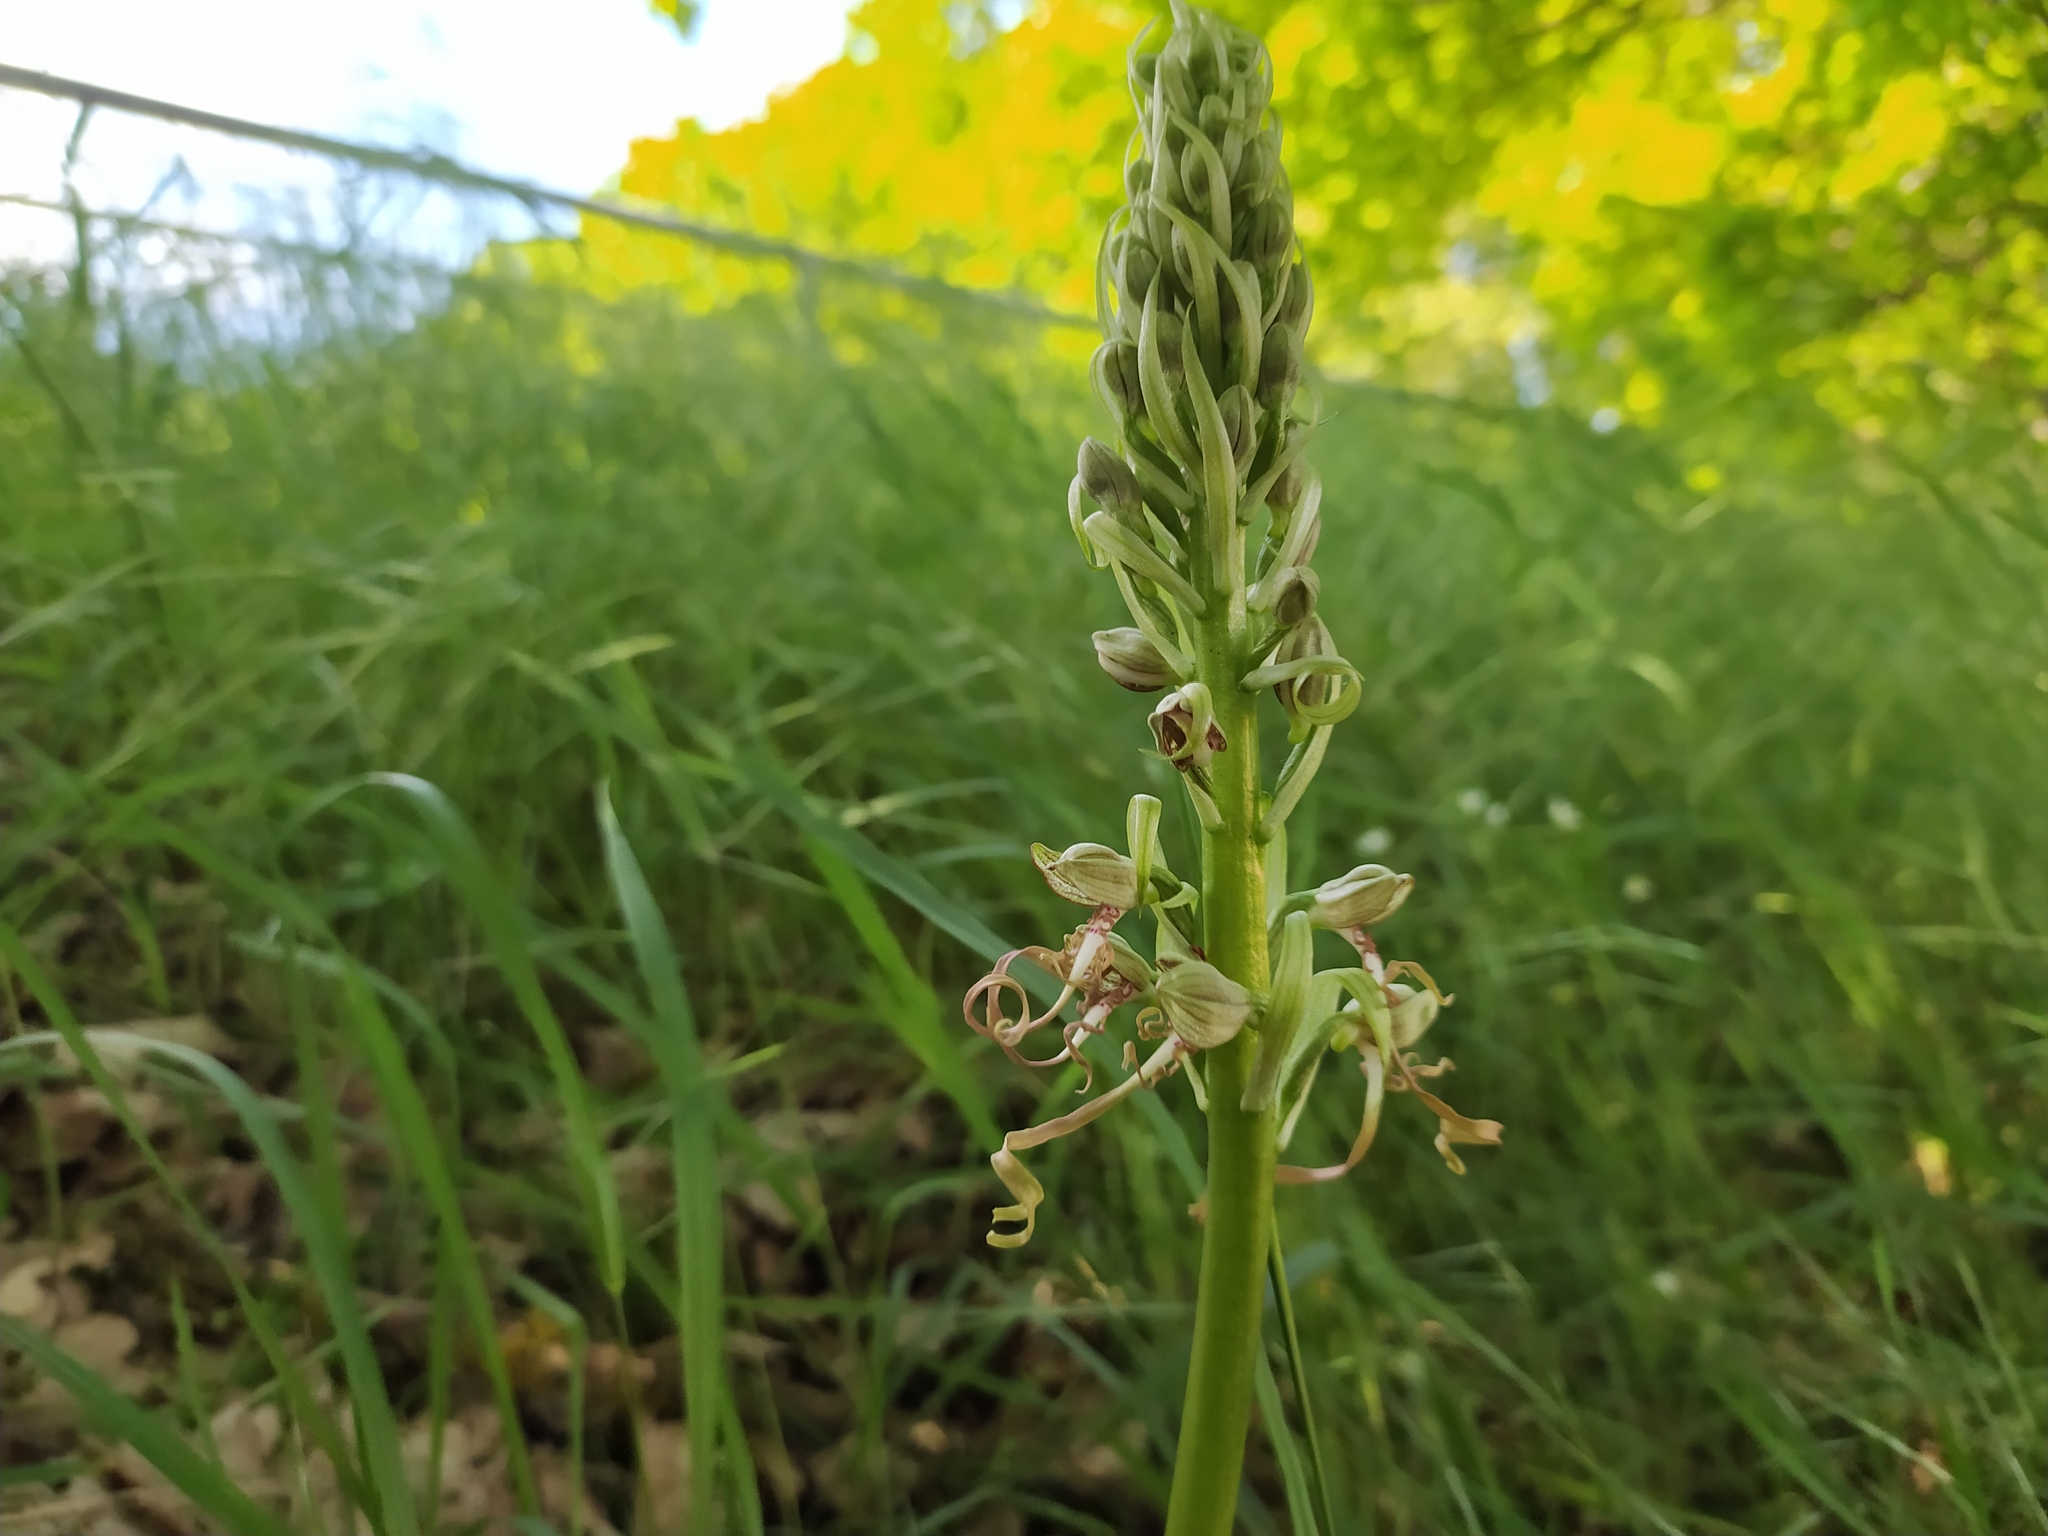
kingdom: Plantae
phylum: Tracheophyta
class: Liliopsida
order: Asparagales
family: Orchidaceae
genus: Himantoglossum
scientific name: Himantoglossum hircinum
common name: Lizard orchid
